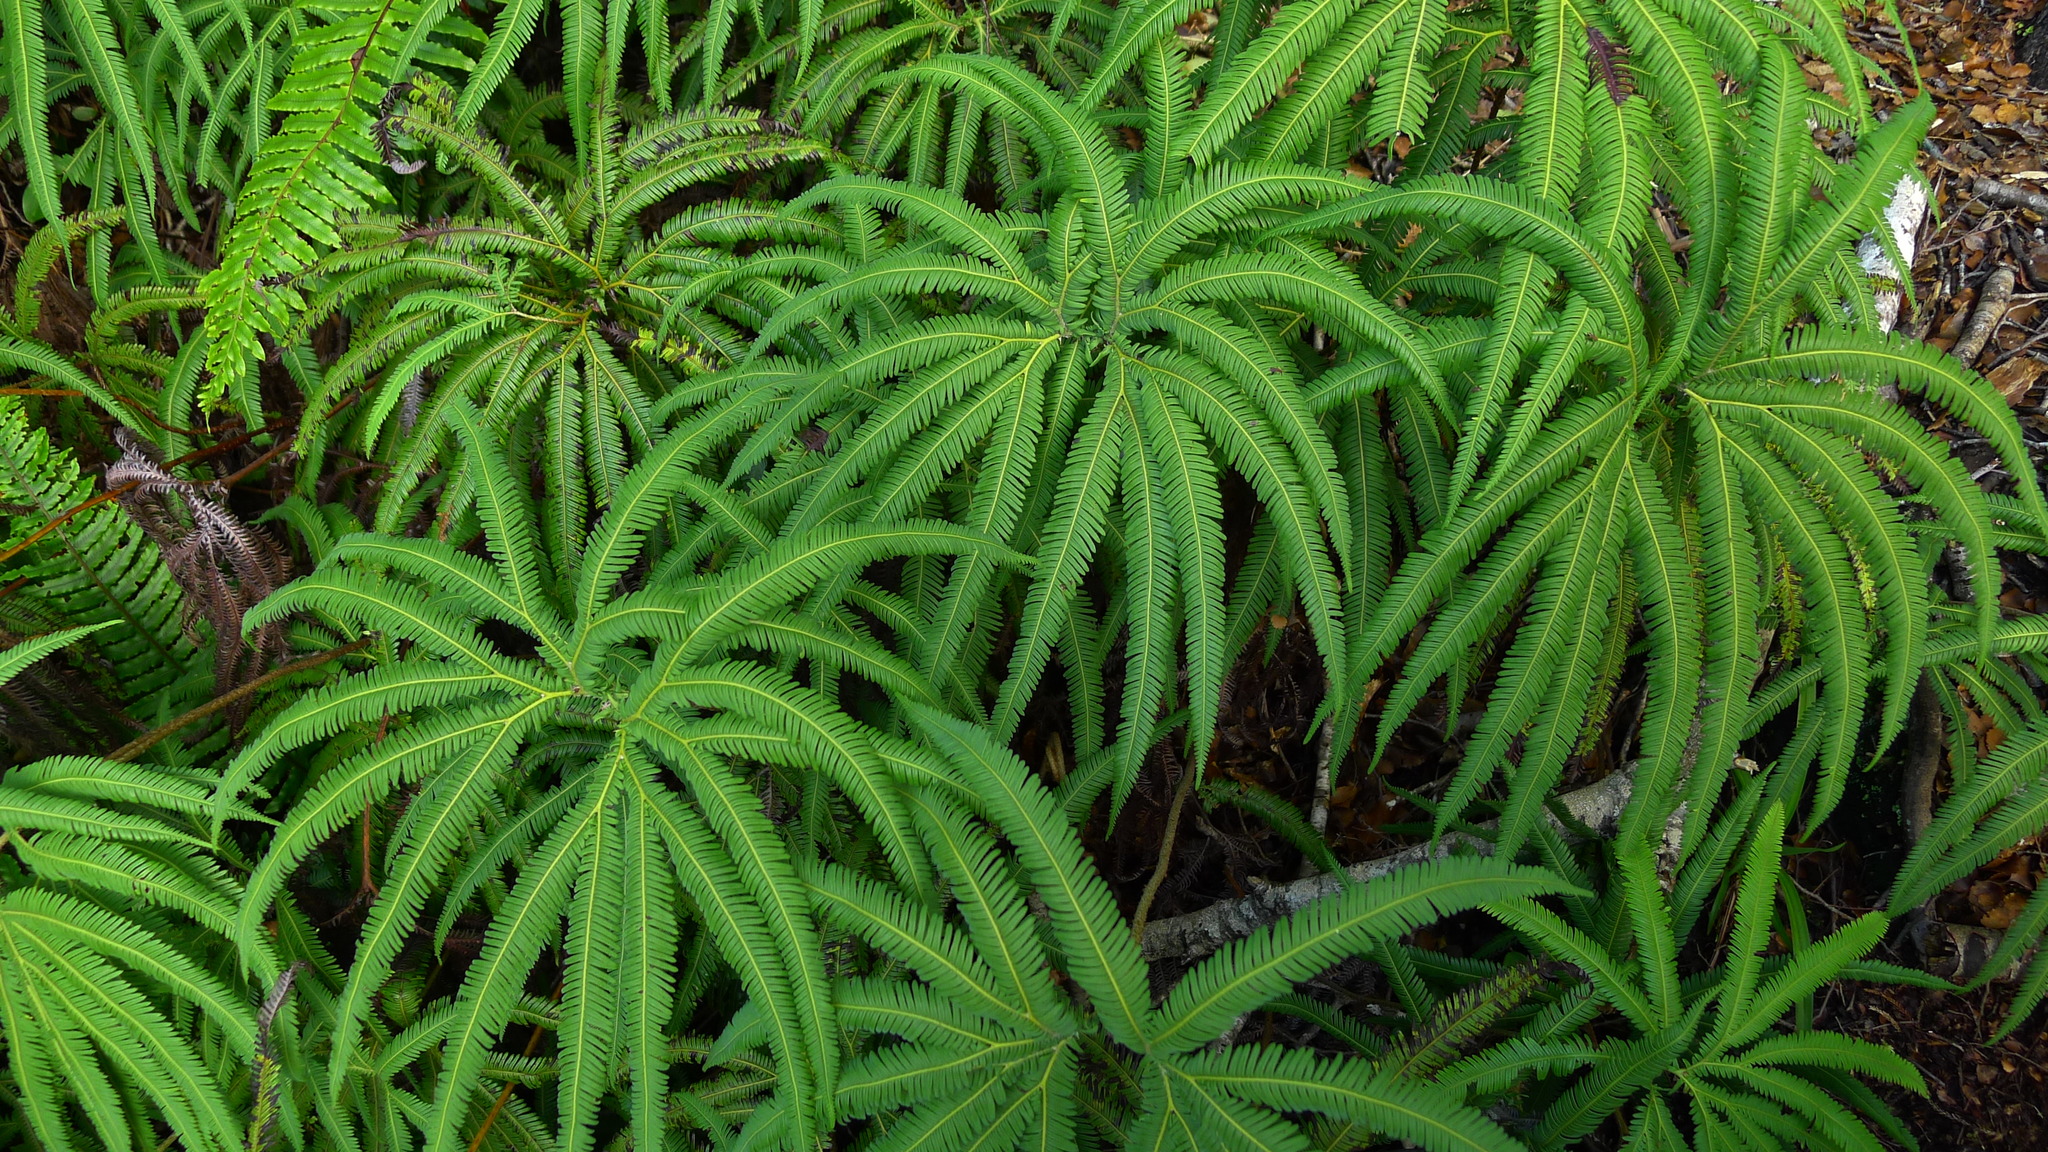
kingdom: Plantae
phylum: Tracheophyta
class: Polypodiopsida
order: Gleicheniales
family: Gleicheniaceae
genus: Sticherus
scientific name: Sticherus cunninghamii
